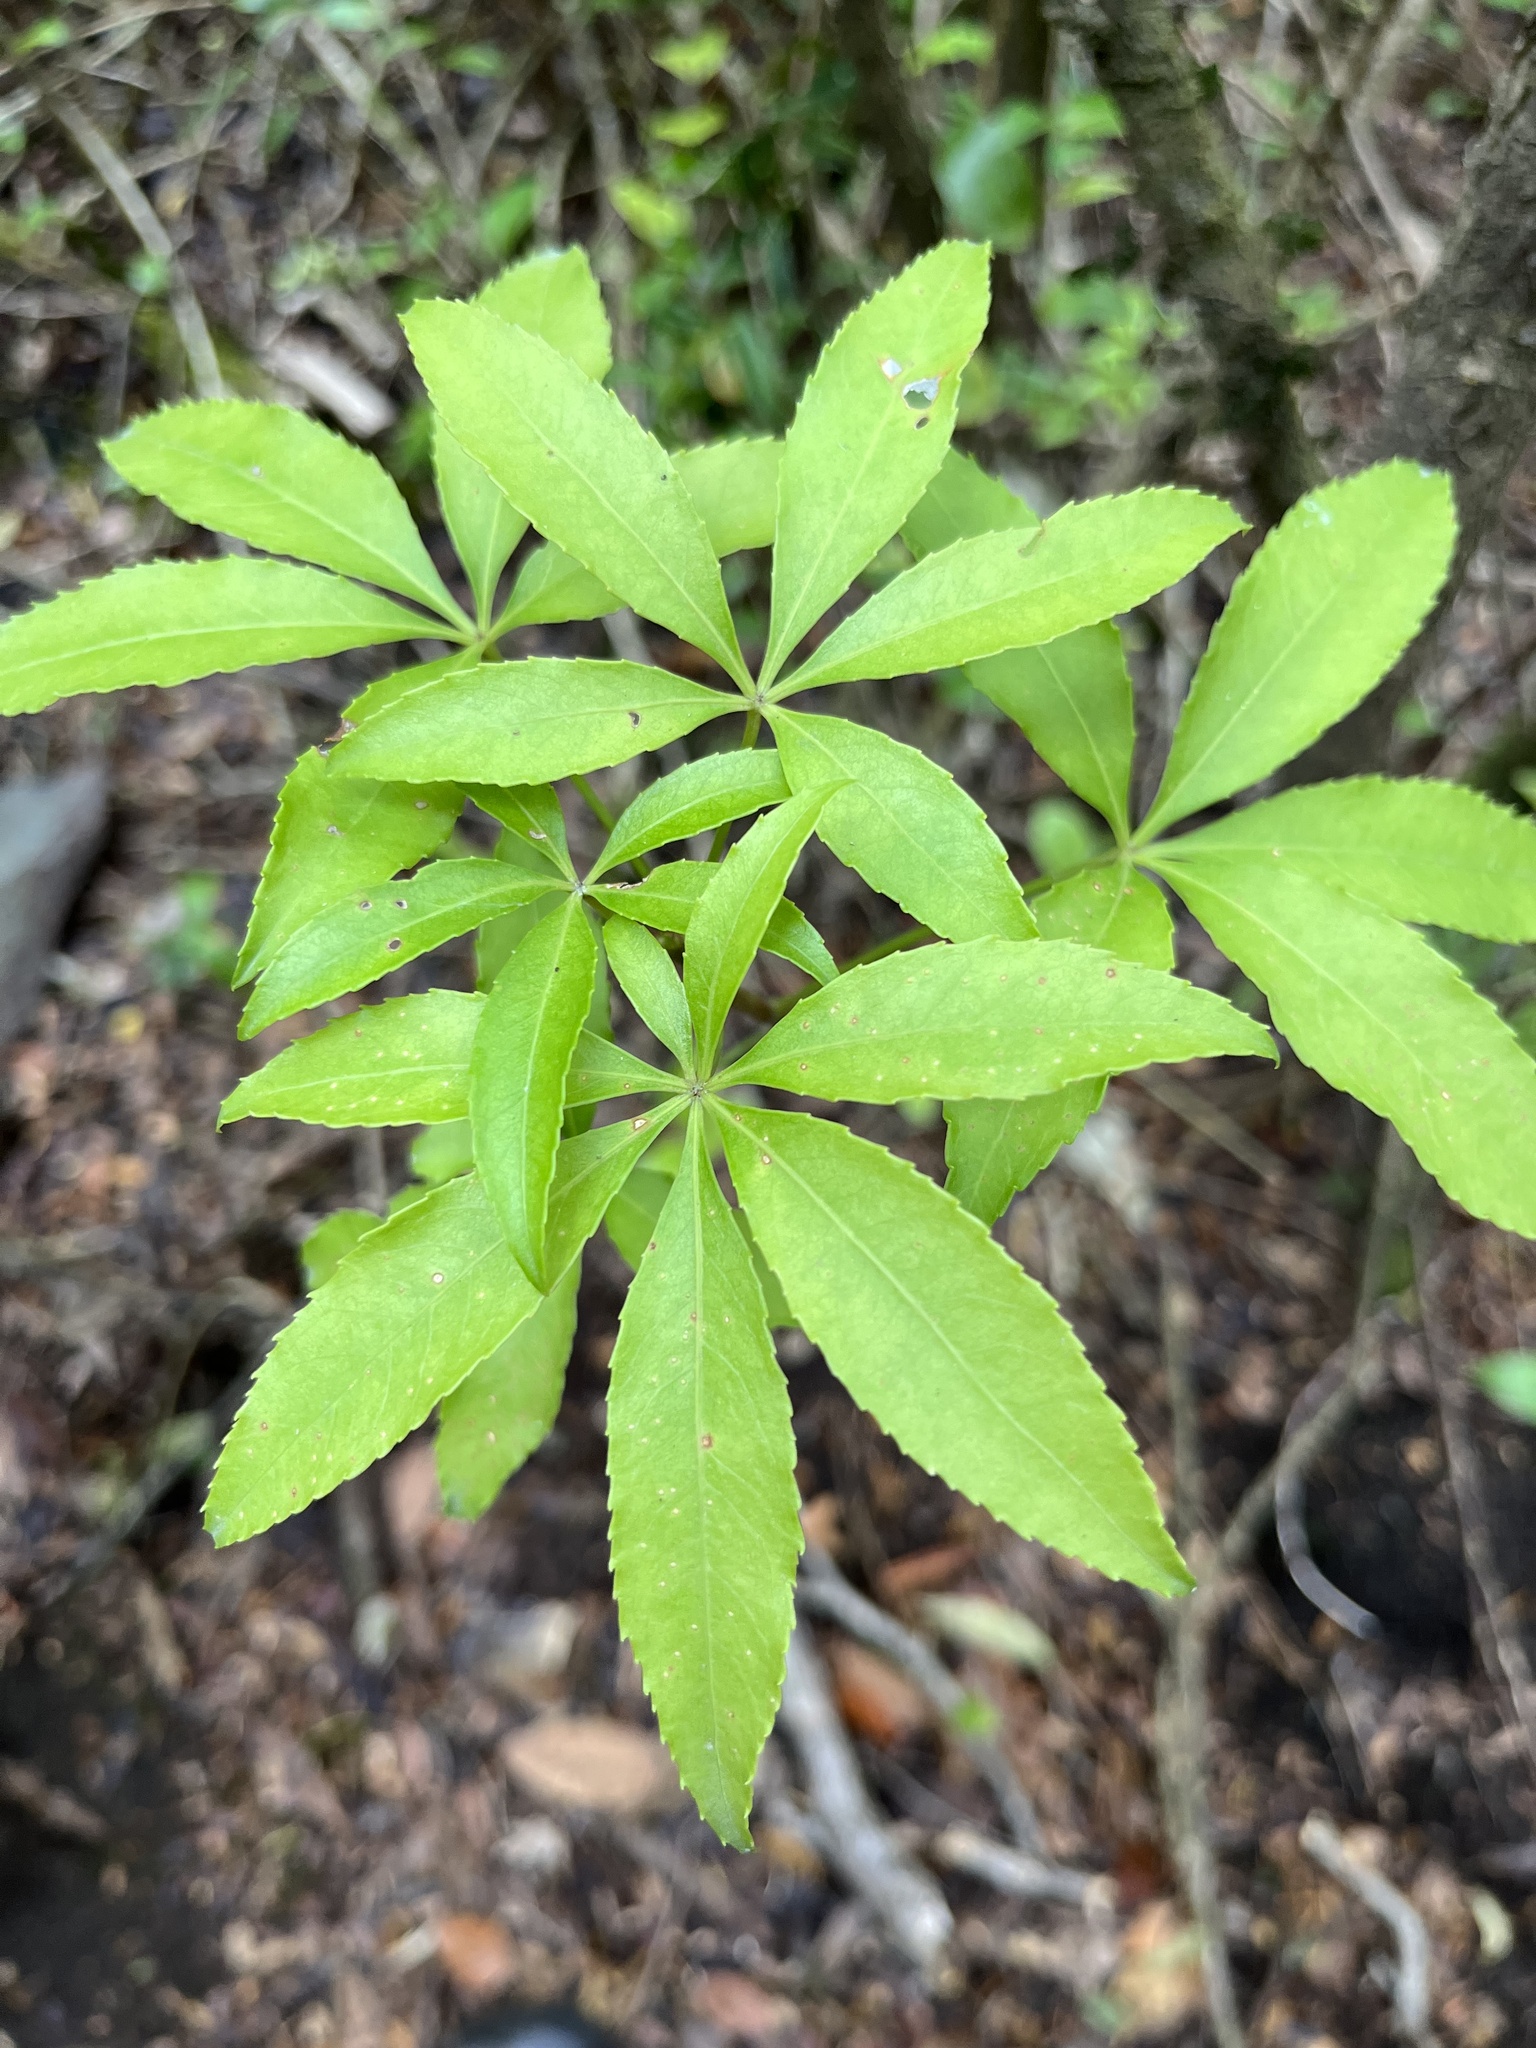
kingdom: Plantae
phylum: Tracheophyta
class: Magnoliopsida
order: Apiales
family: Araliaceae
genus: Raukaua
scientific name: Raukaua laetevirens
